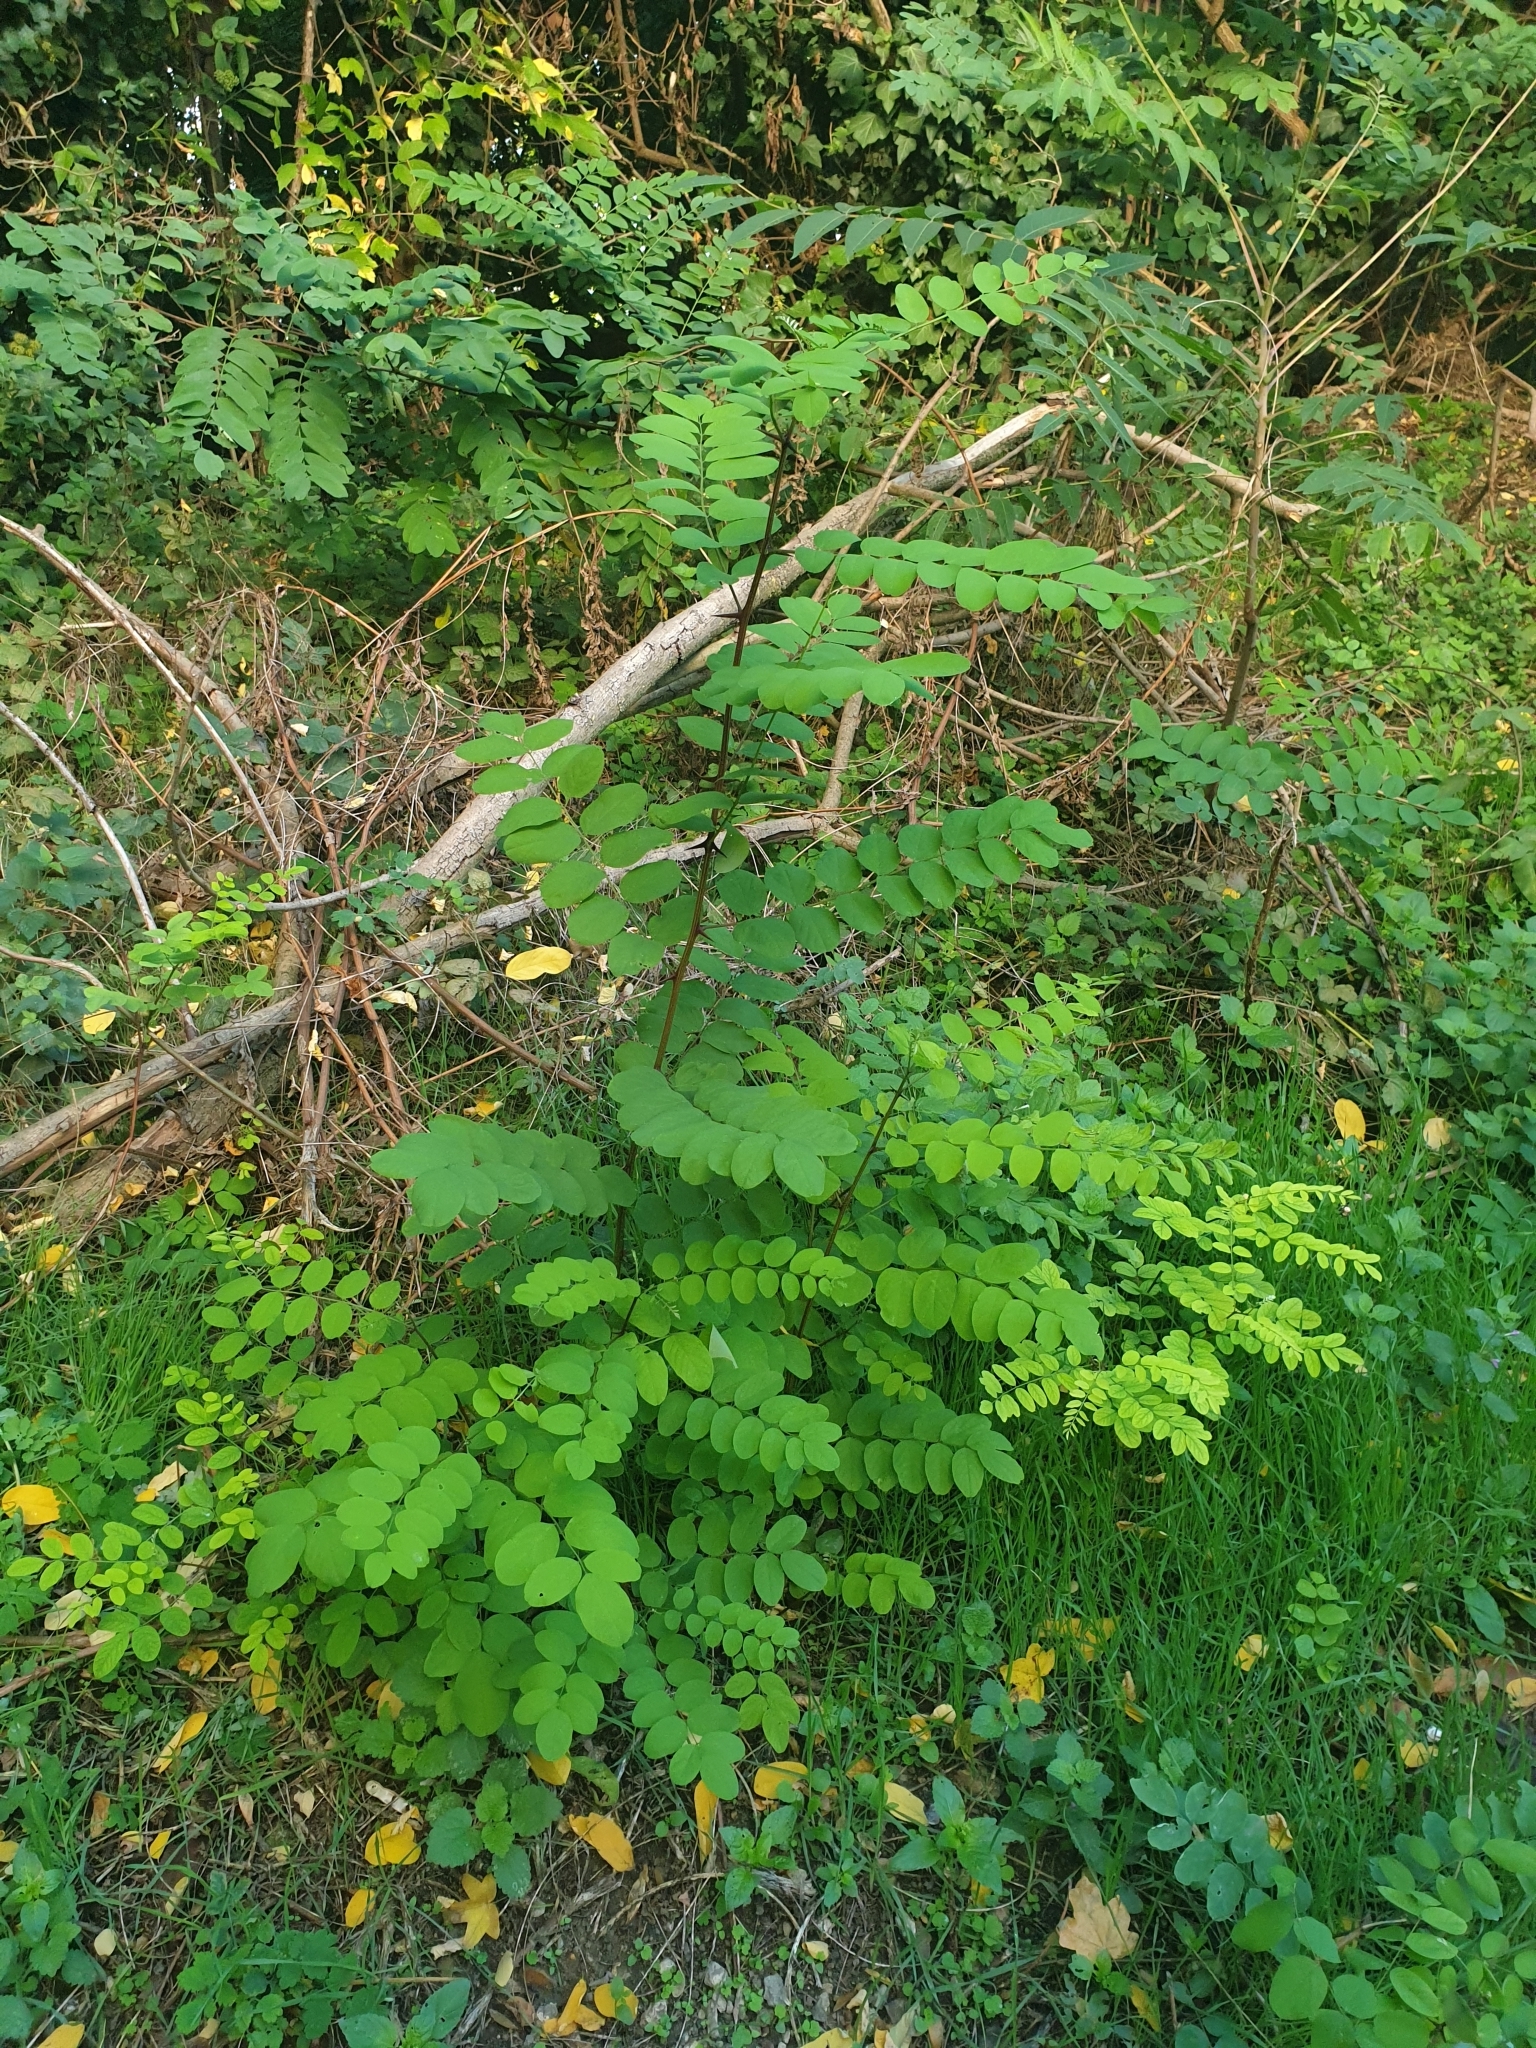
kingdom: Plantae
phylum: Tracheophyta
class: Magnoliopsida
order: Fabales
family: Fabaceae
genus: Robinia
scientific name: Robinia pseudoacacia
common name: Black locust
